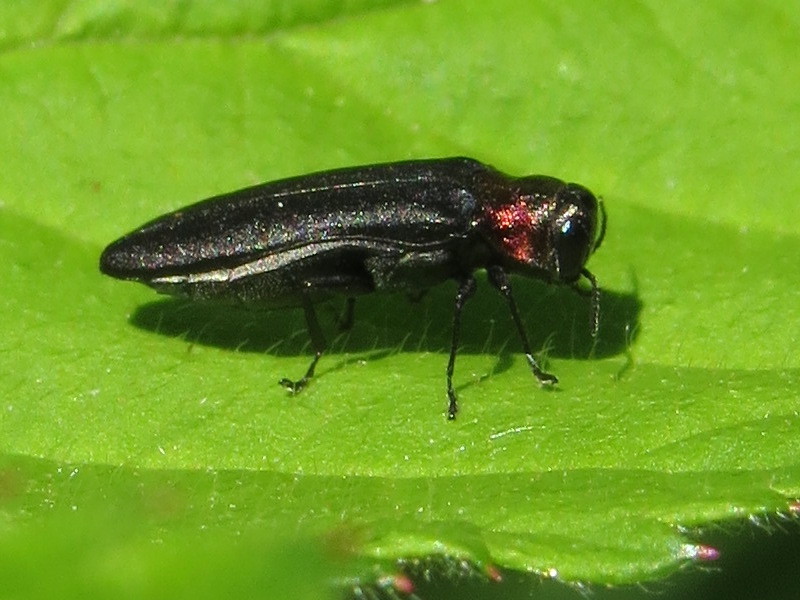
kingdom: Animalia
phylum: Arthropoda
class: Insecta
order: Coleoptera
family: Buprestidae
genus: Agrilus
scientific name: Agrilus ruficollis
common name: Red-necked cane borer beetle
